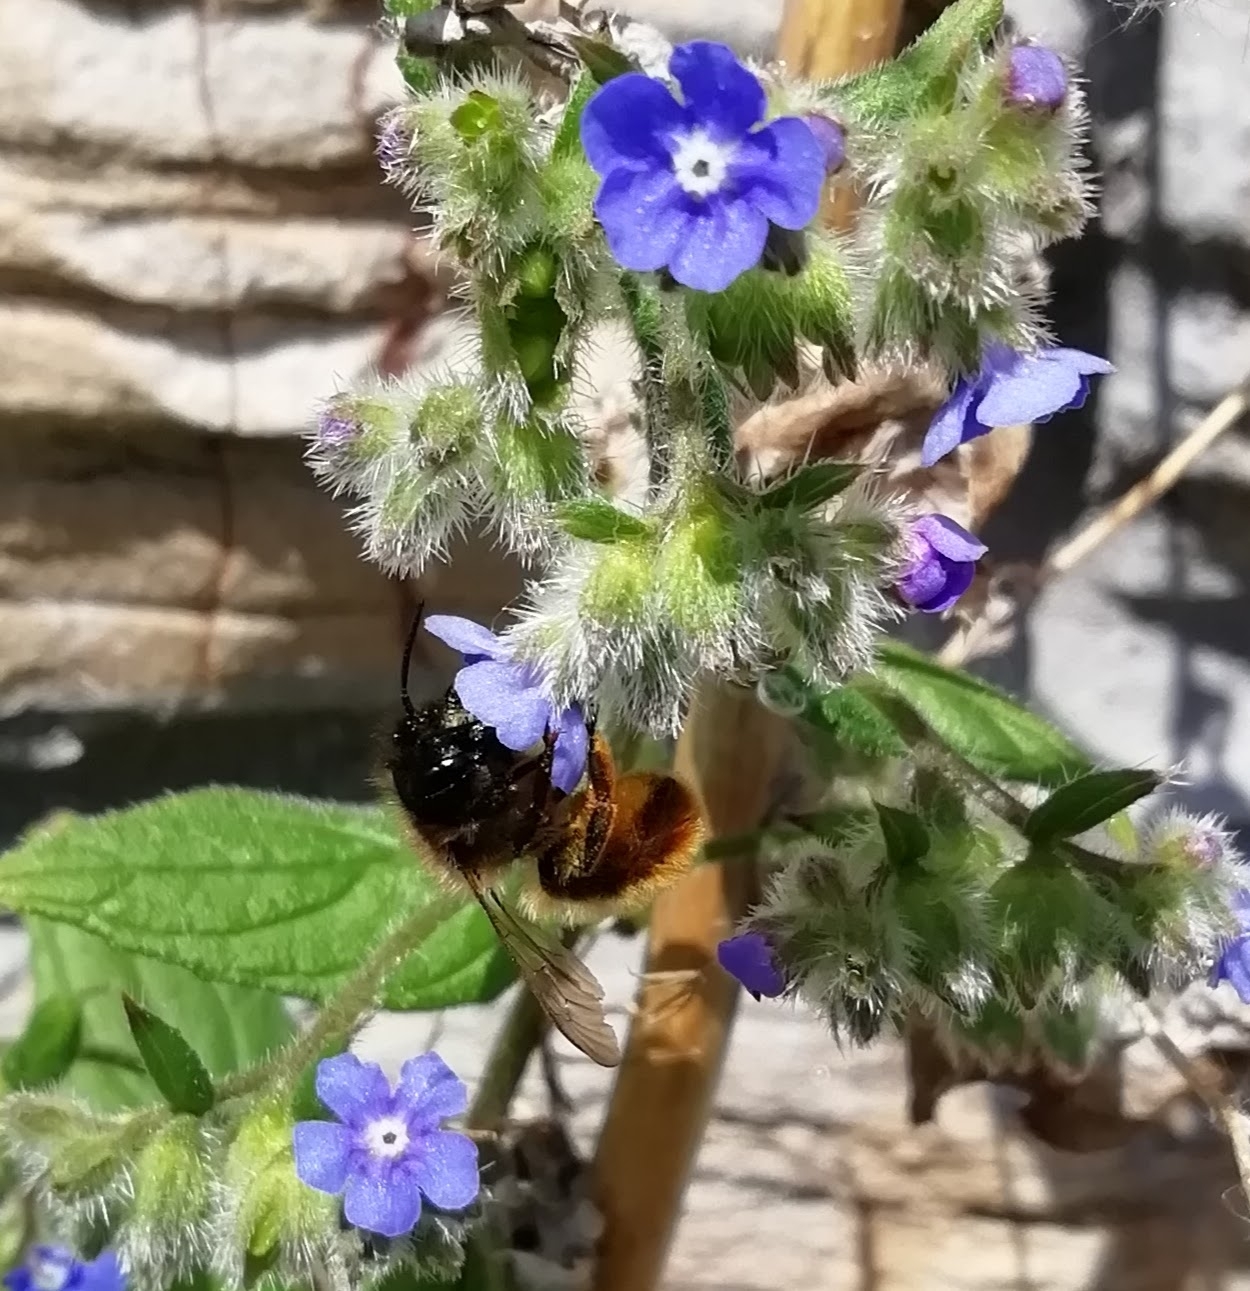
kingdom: Animalia
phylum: Arthropoda
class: Insecta
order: Hymenoptera
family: Megachilidae
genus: Osmia
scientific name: Osmia bicornis
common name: Red mason bee
